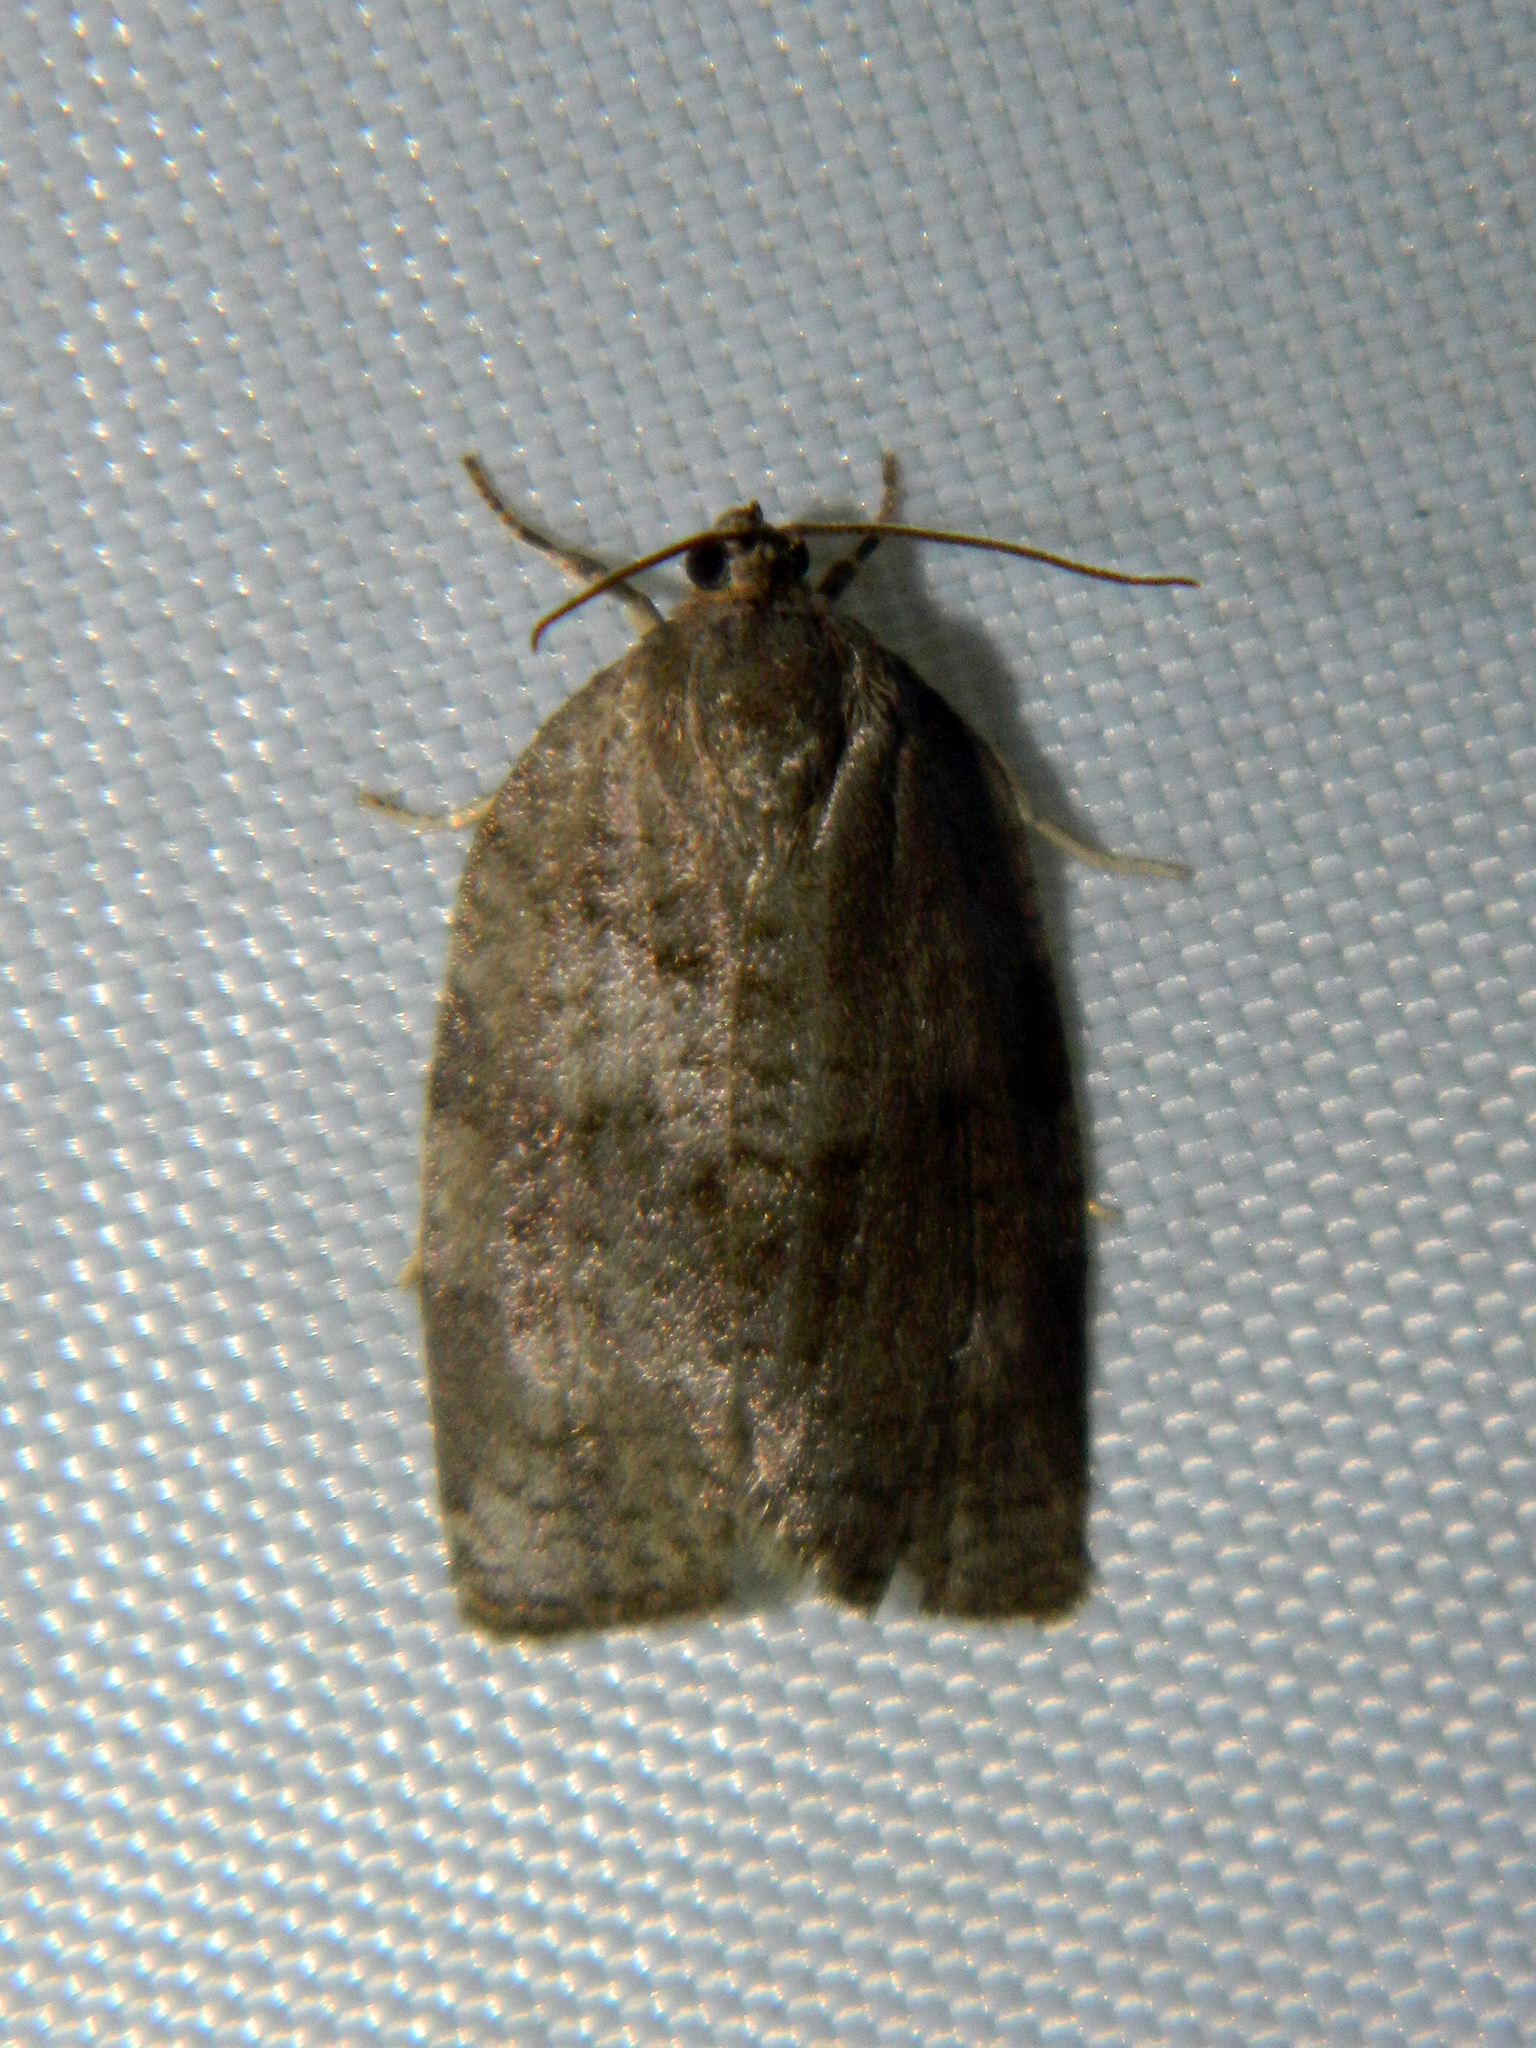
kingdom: Animalia
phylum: Arthropoda
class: Insecta
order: Lepidoptera
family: Tortricidae
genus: Choristoneura
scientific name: Choristoneura conflictana
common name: Large aspen tortrix
